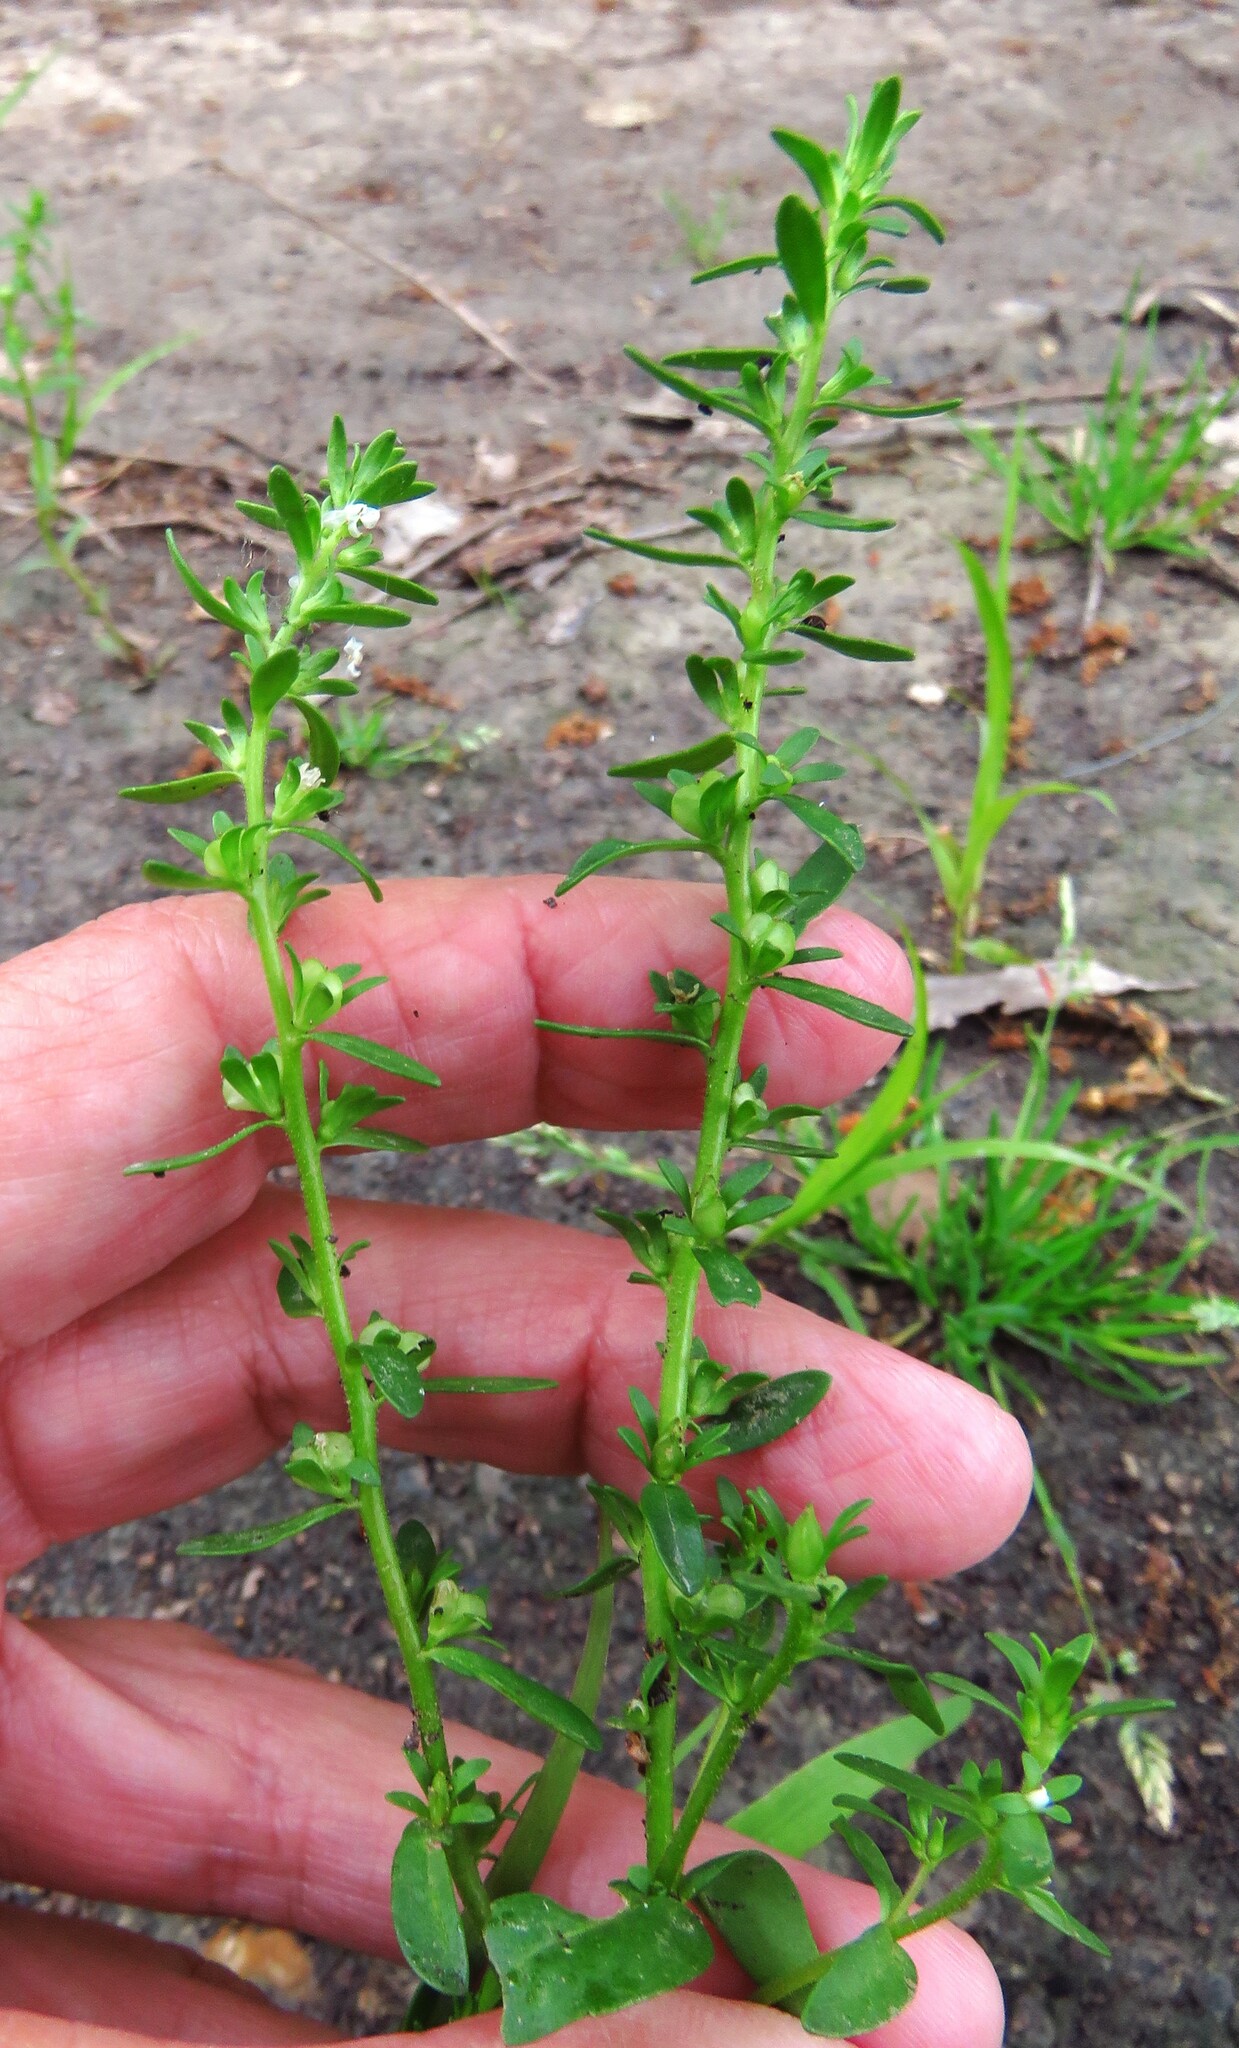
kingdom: Plantae
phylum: Tracheophyta
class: Magnoliopsida
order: Lamiales
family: Plantaginaceae
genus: Veronica
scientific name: Veronica peregrina
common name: Neckweed
